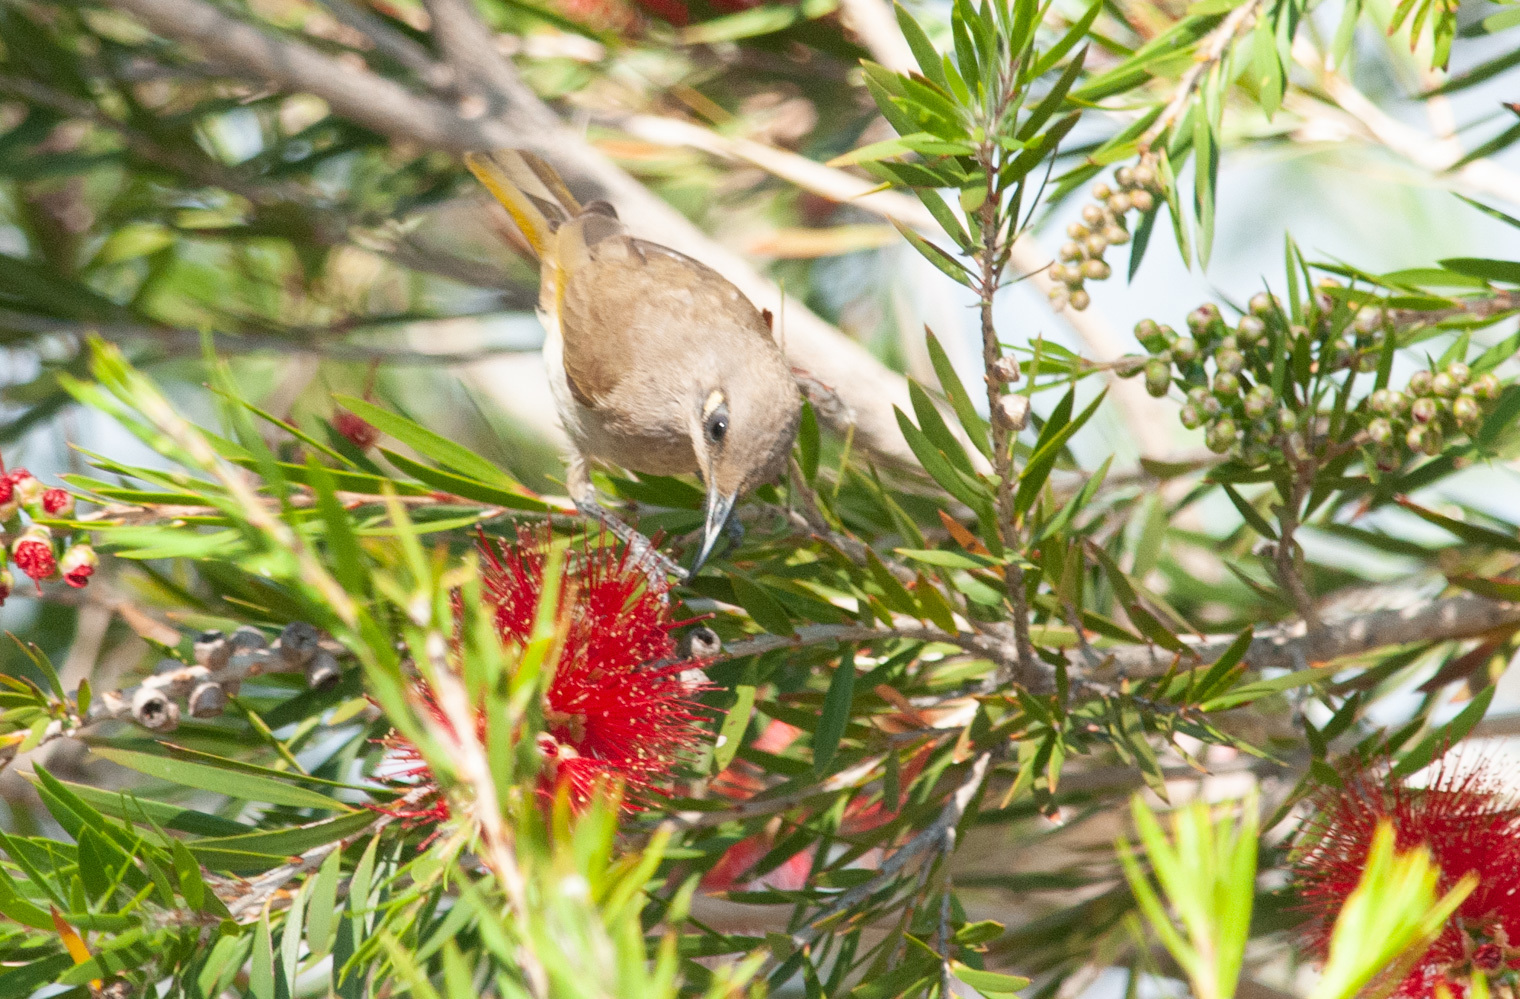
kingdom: Animalia
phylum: Chordata
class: Aves
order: Passeriformes
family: Meliphagidae
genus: Lichmera
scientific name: Lichmera indistincta
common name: Brown honeyeater
